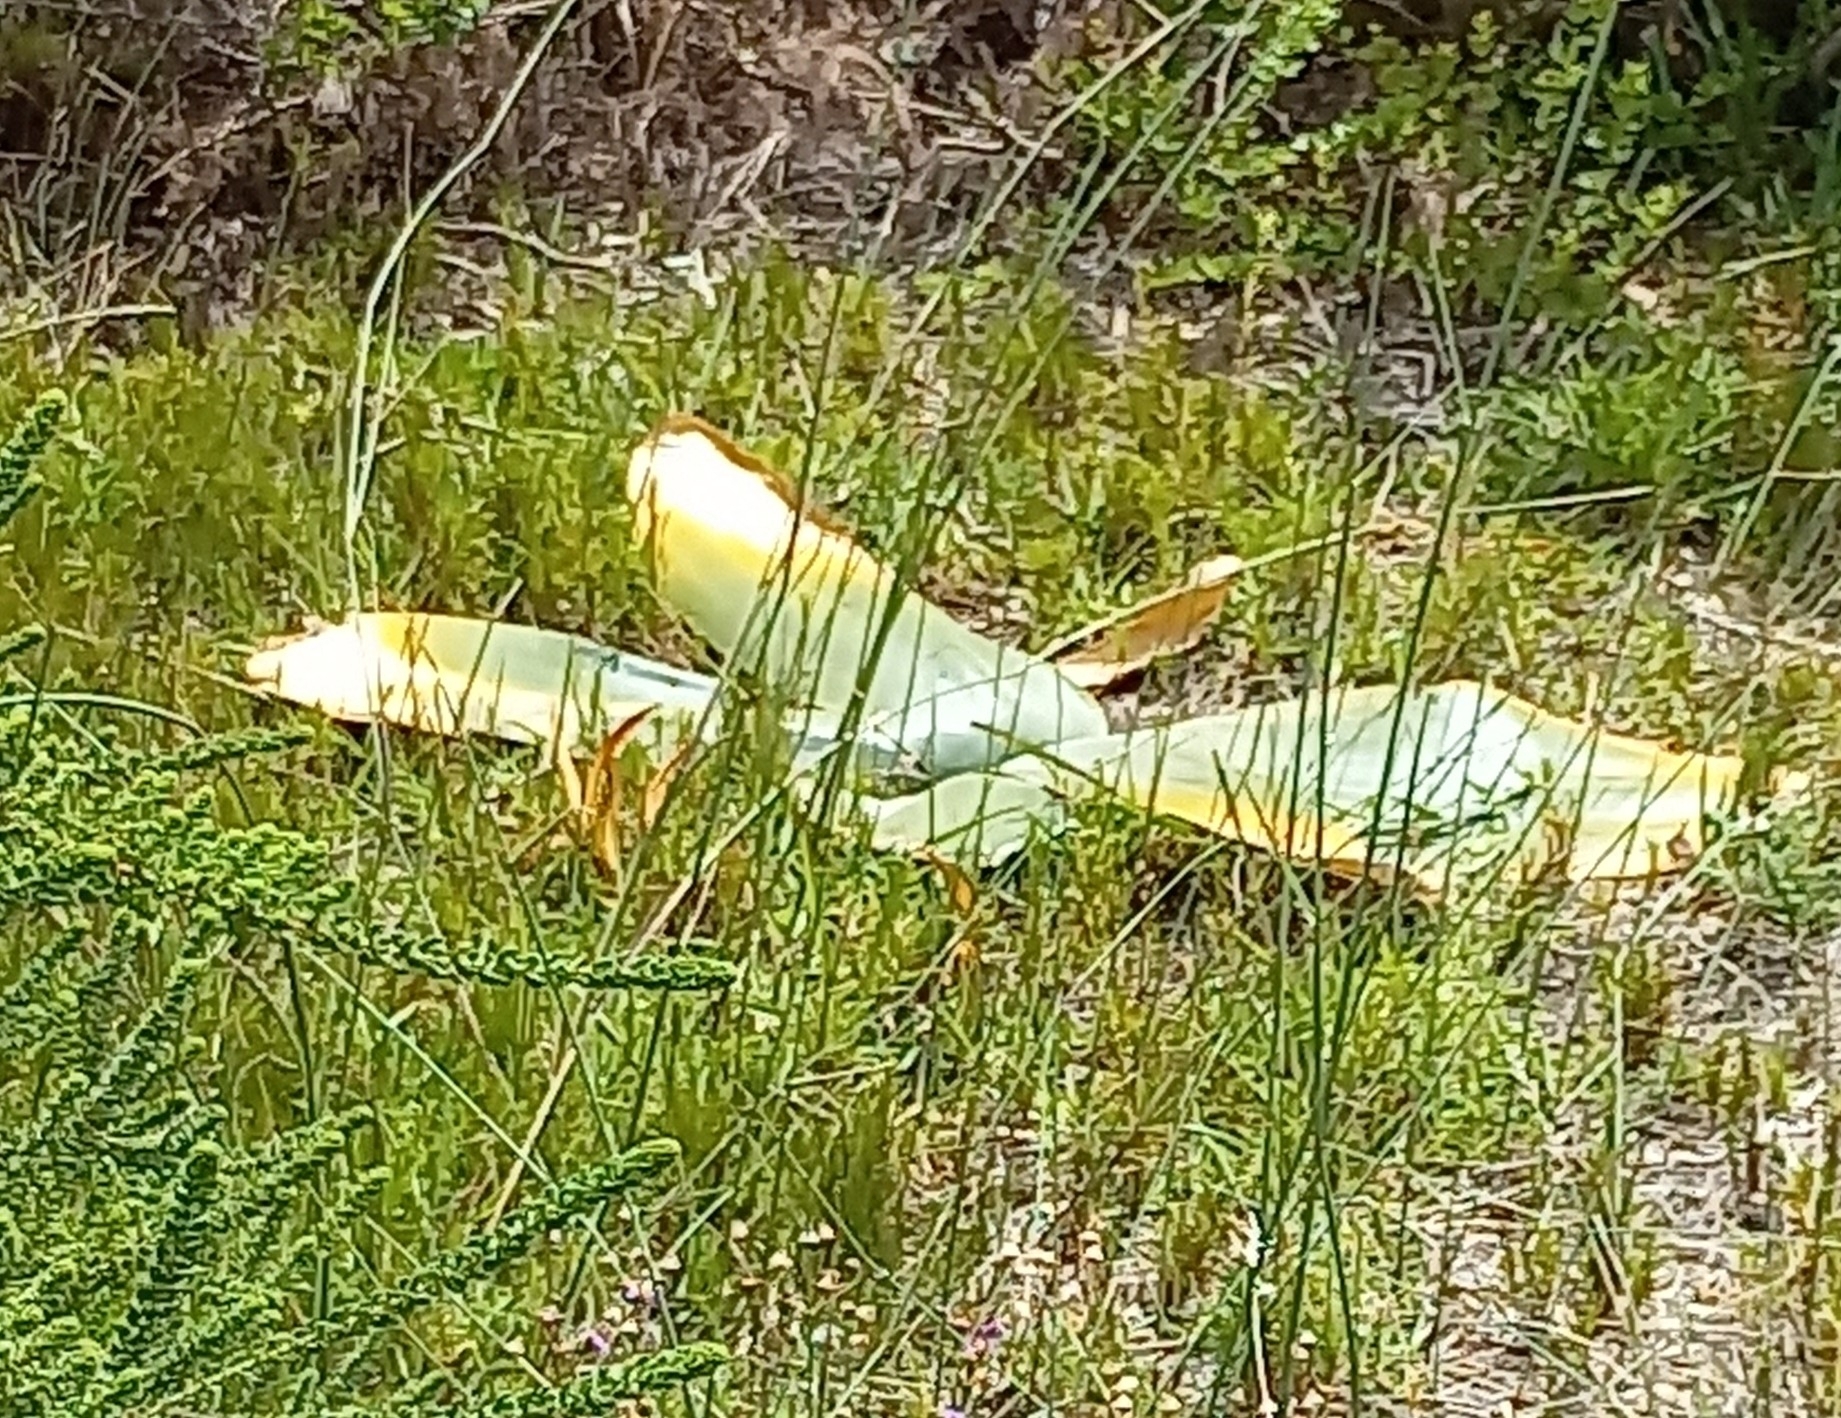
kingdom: Plantae
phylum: Tracheophyta
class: Liliopsida
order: Asparagales
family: Amaryllidaceae
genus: Brunsvigia
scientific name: Brunsvigia orientalis
